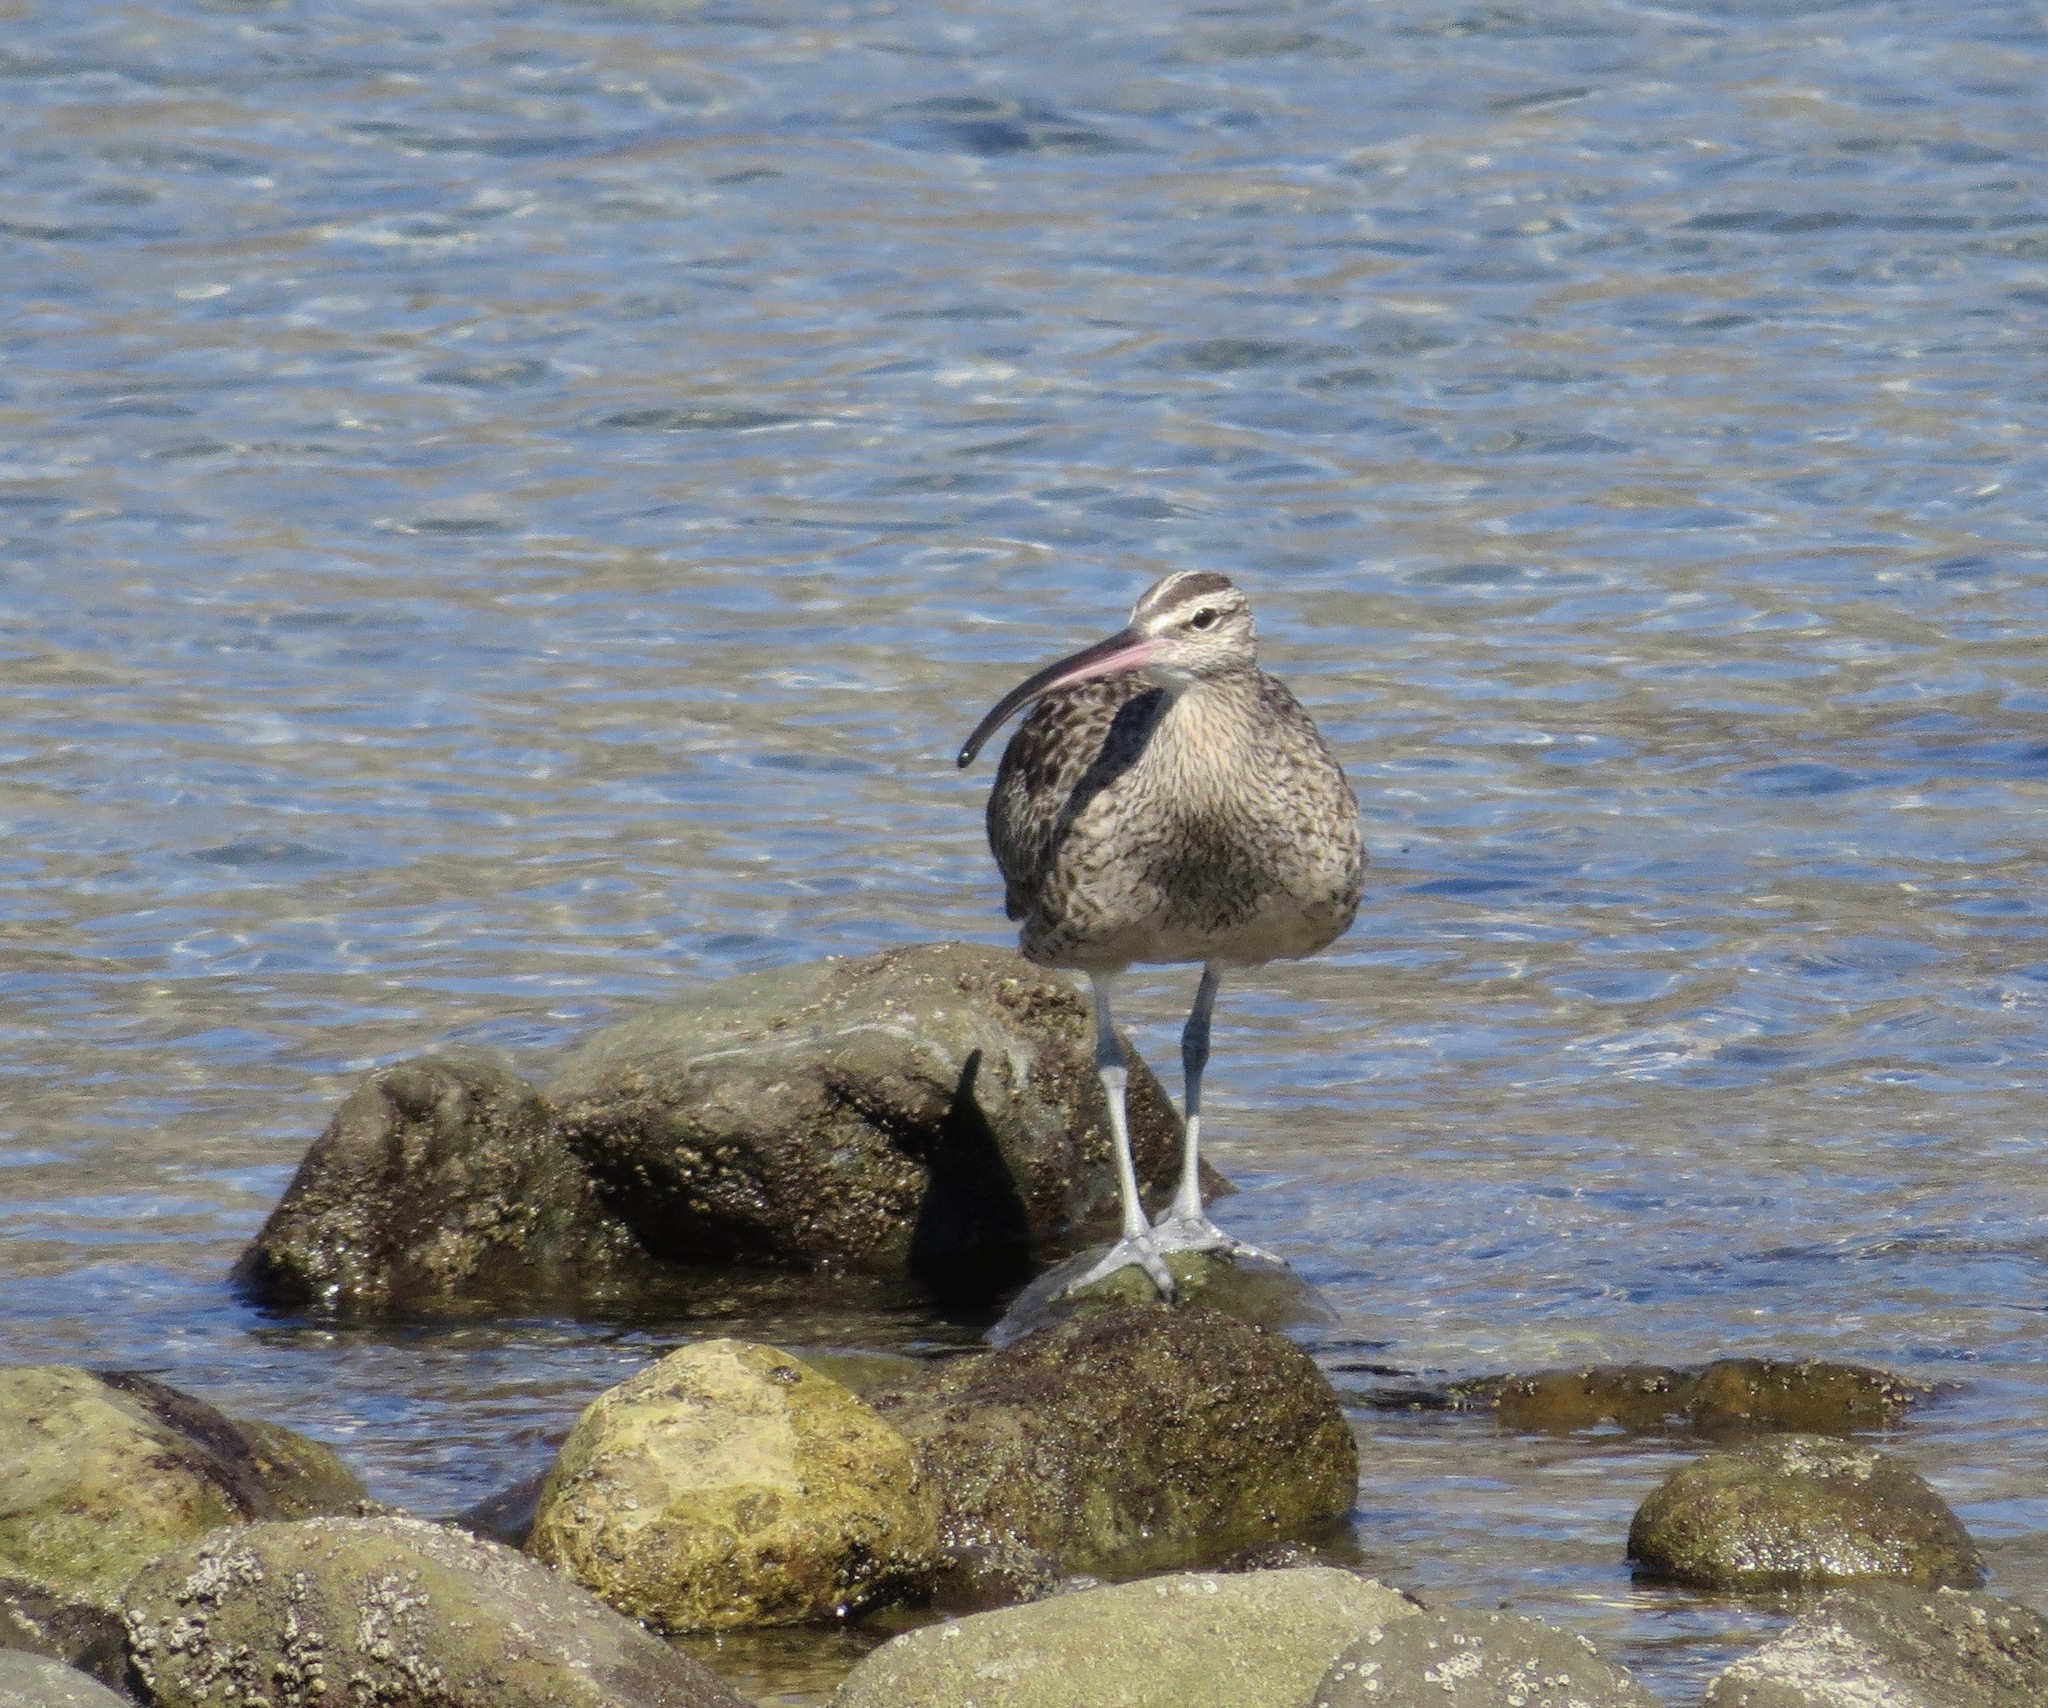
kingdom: Animalia
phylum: Chordata
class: Aves
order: Charadriiformes
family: Scolopacidae
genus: Numenius
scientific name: Numenius phaeopus
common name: Whimbrel
